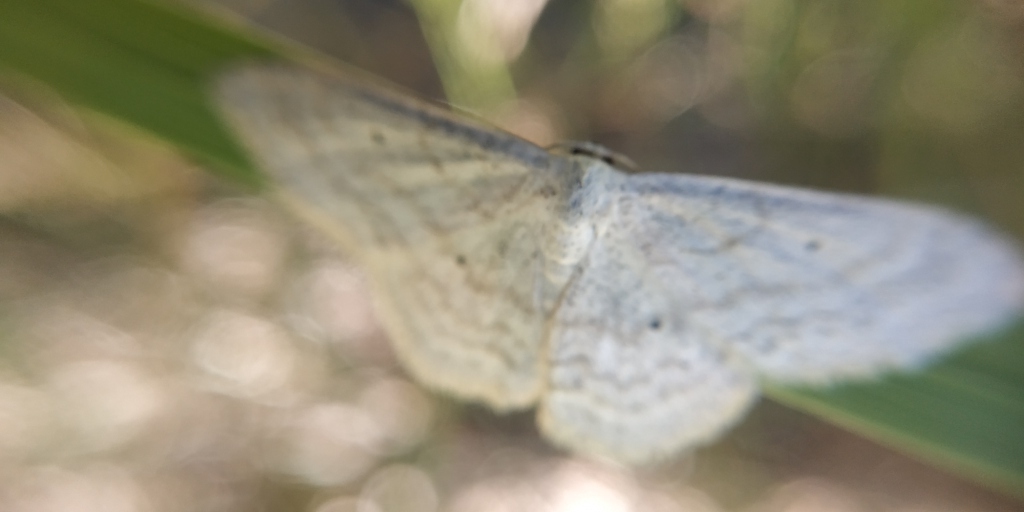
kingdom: Animalia
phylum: Arthropoda
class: Insecta
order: Lepidoptera
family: Geometridae
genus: Scopula
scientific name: Scopula incanata
